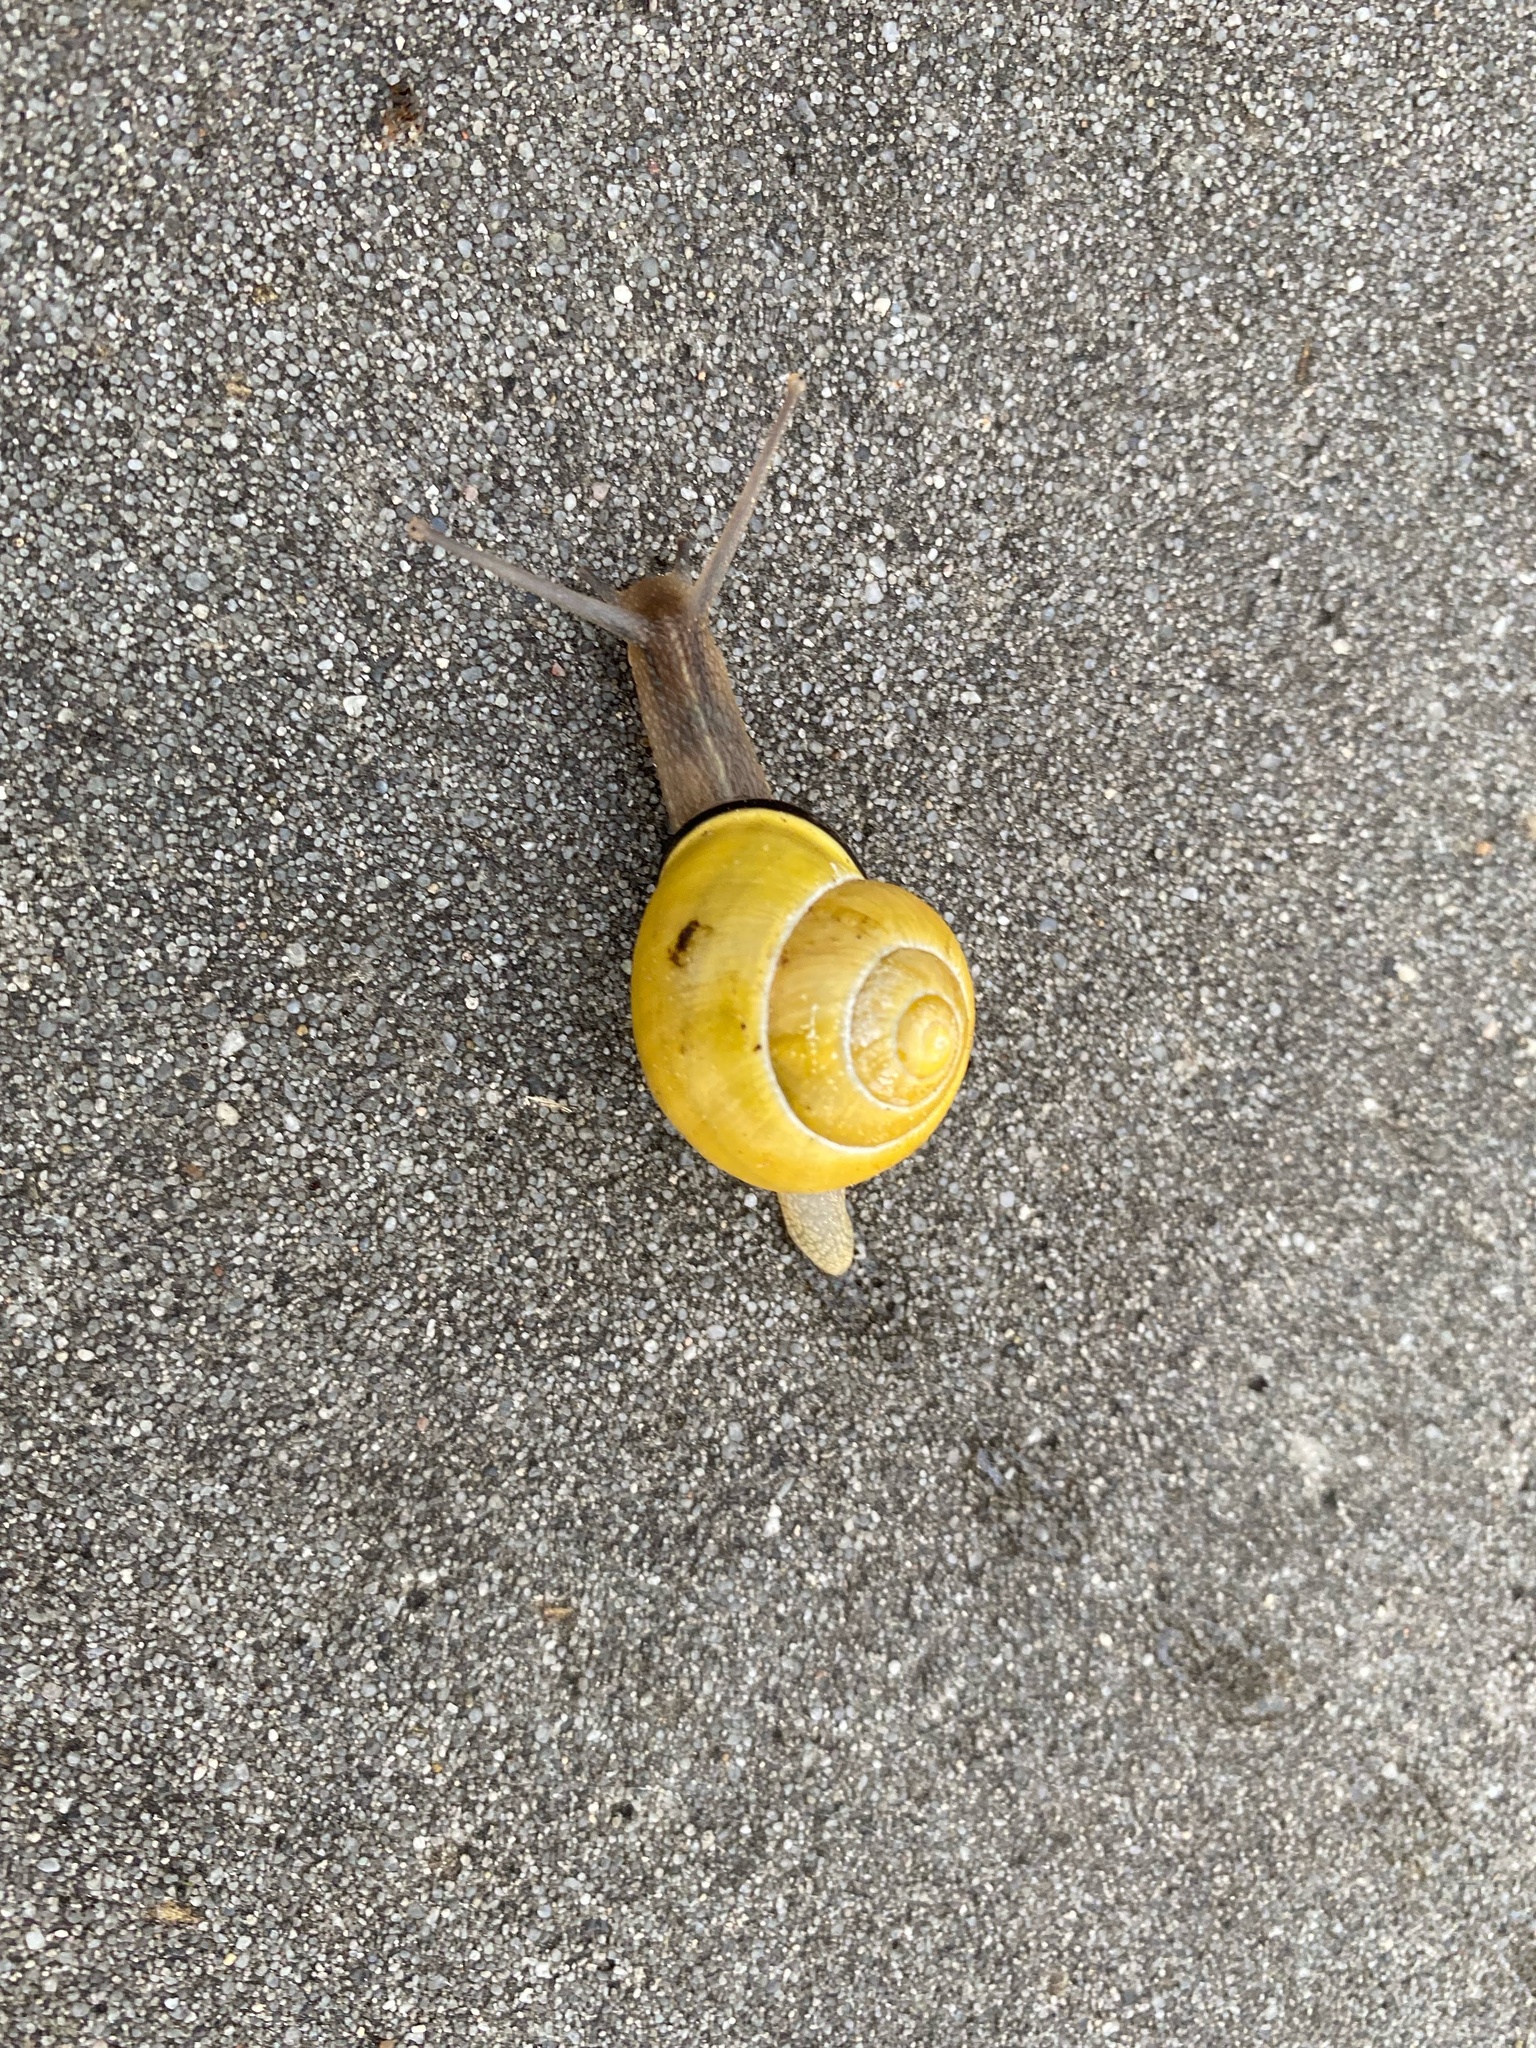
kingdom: Animalia
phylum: Mollusca
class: Gastropoda
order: Stylommatophora
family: Helicidae
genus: Cepaea
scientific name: Cepaea nemoralis
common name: Grovesnail
